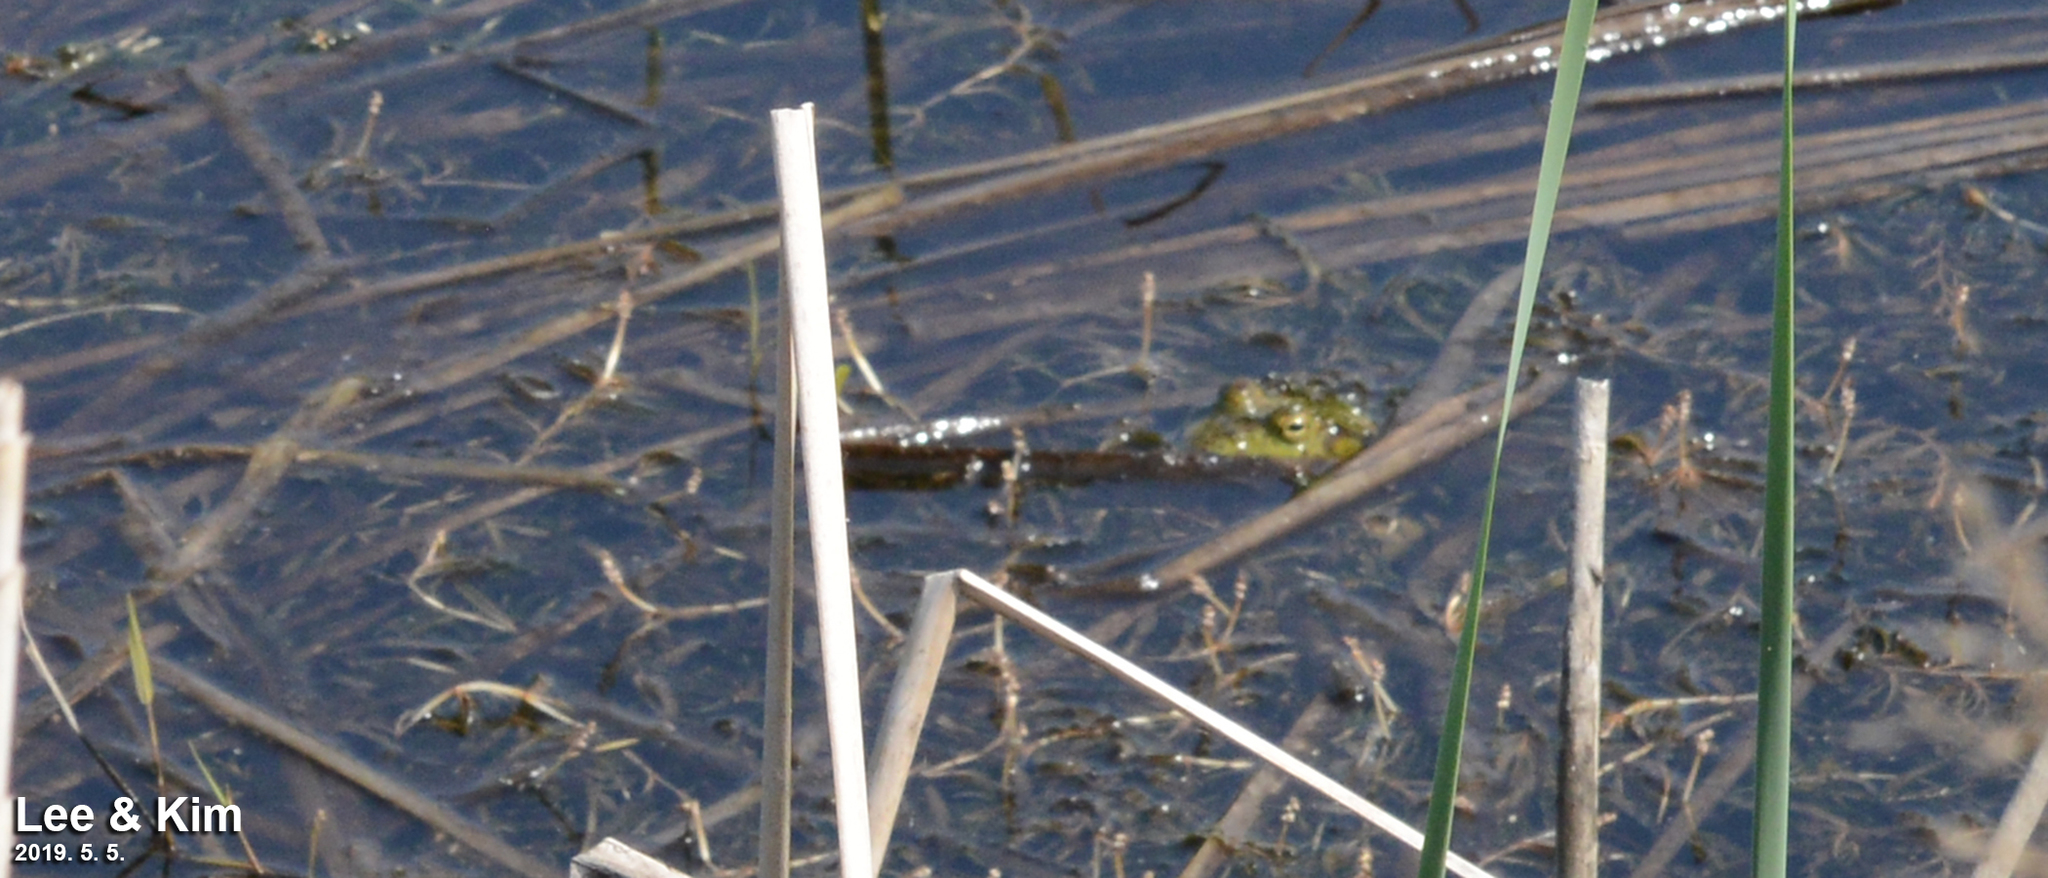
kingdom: Animalia
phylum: Chordata
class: Amphibia
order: Anura
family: Ranidae
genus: Lithobates
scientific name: Lithobates catesbeianus
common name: American bullfrog
